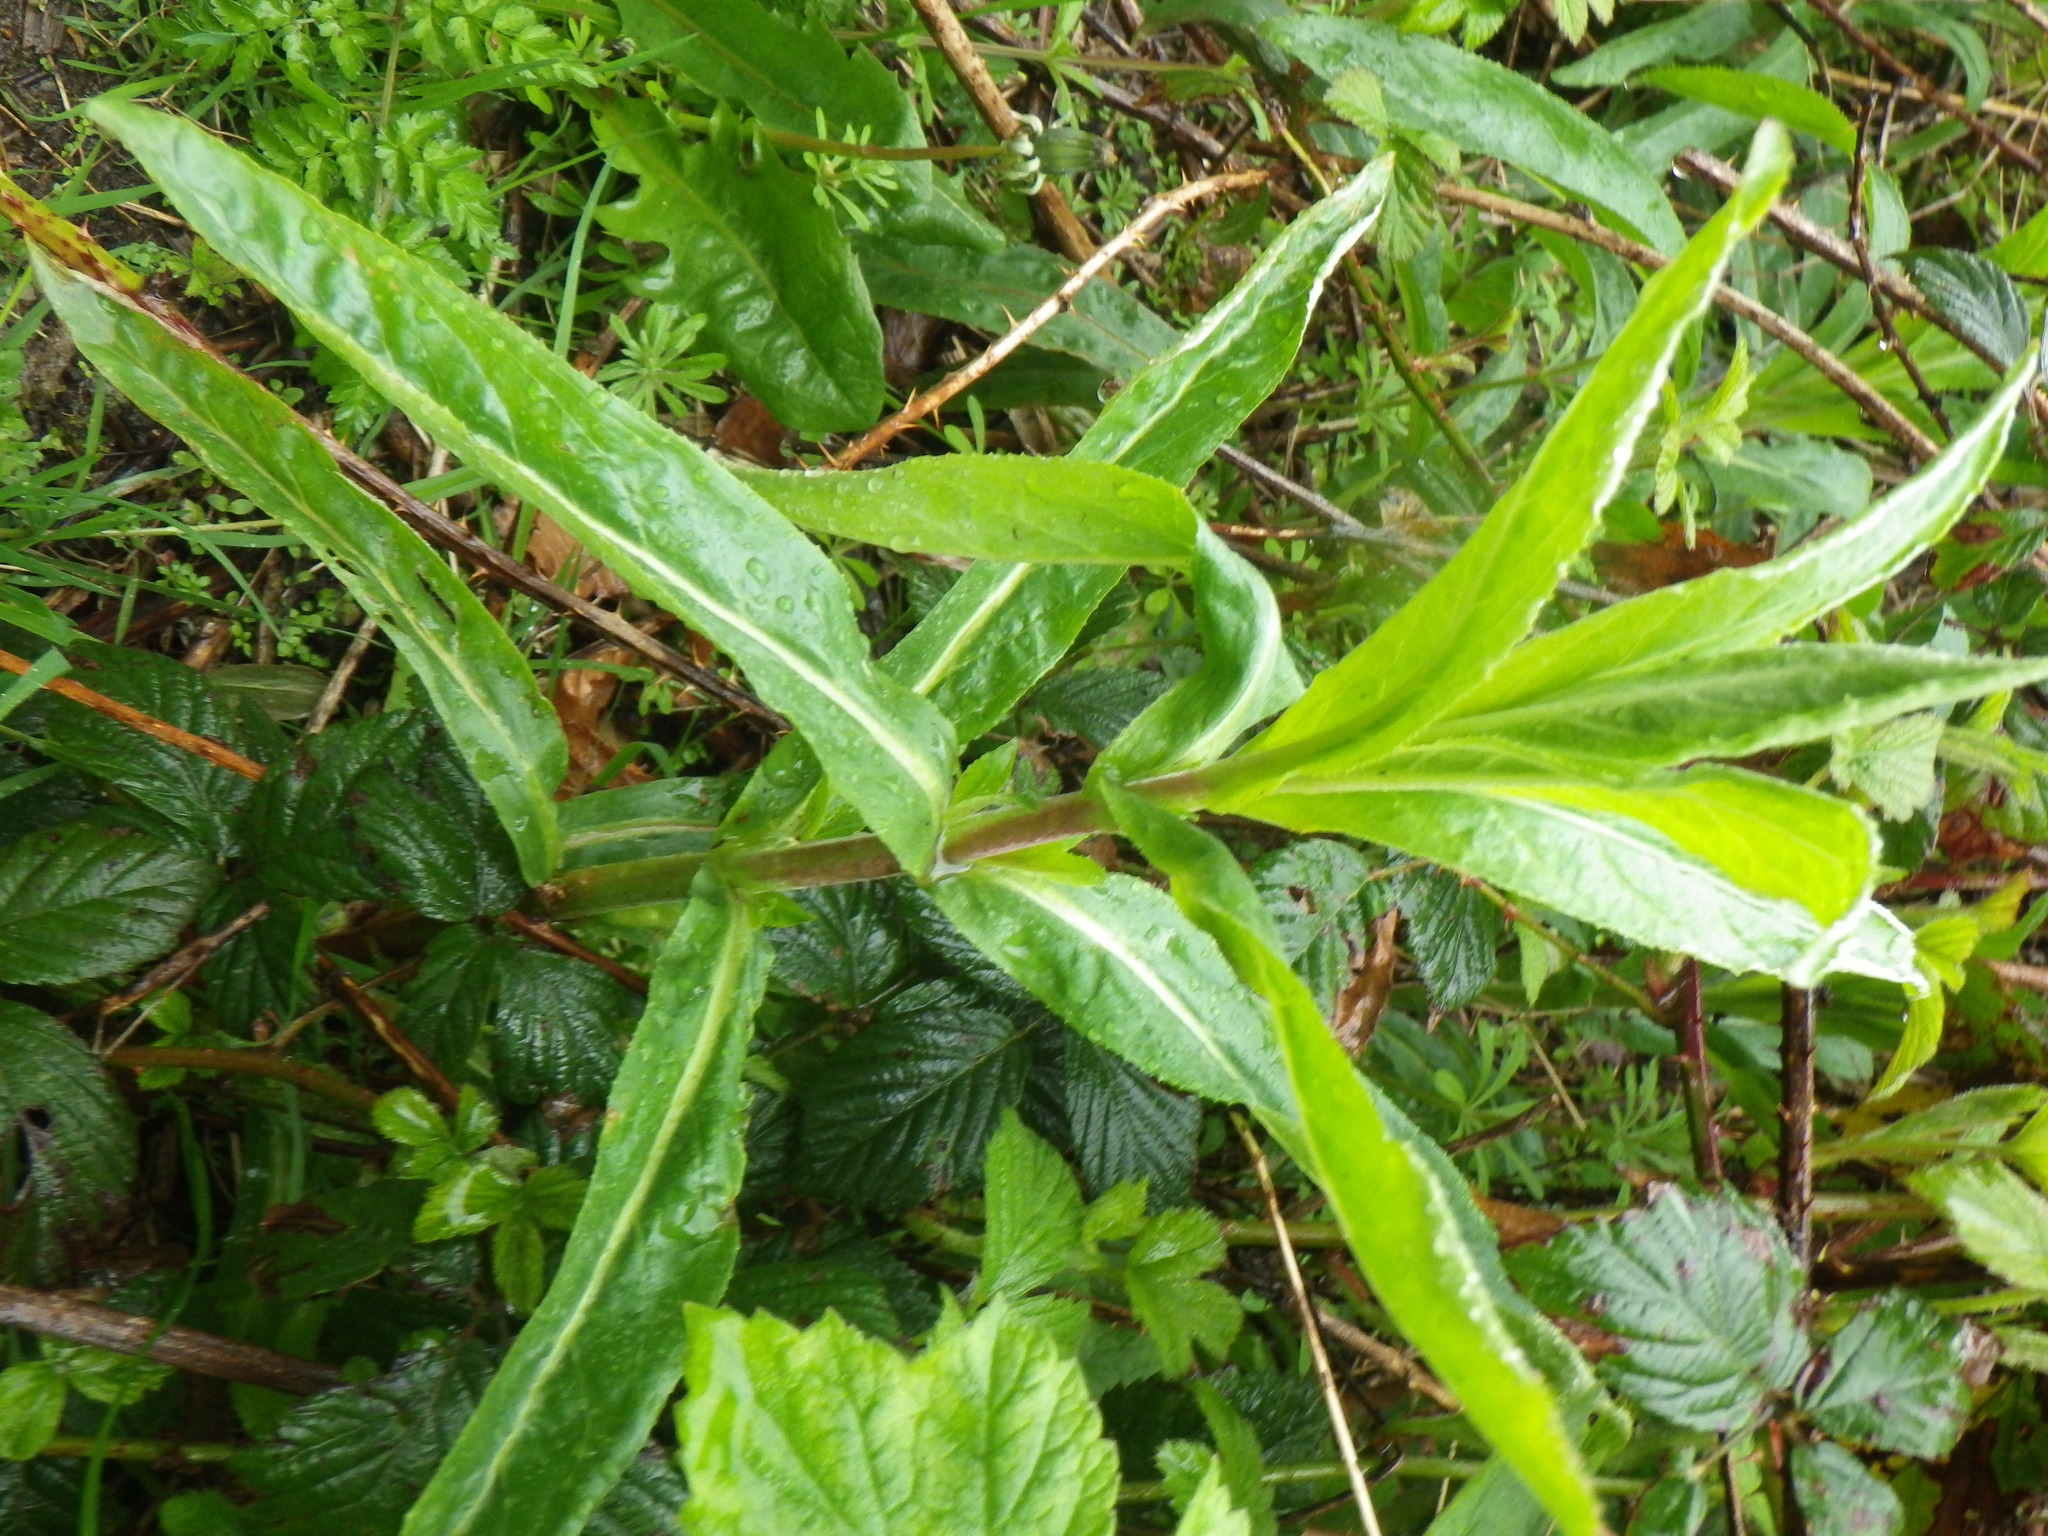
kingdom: Plantae
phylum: Tracheophyta
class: Magnoliopsida
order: Myrtales
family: Onagraceae
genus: Epilobium
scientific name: Epilobium hirsutum
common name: Great willowherb
